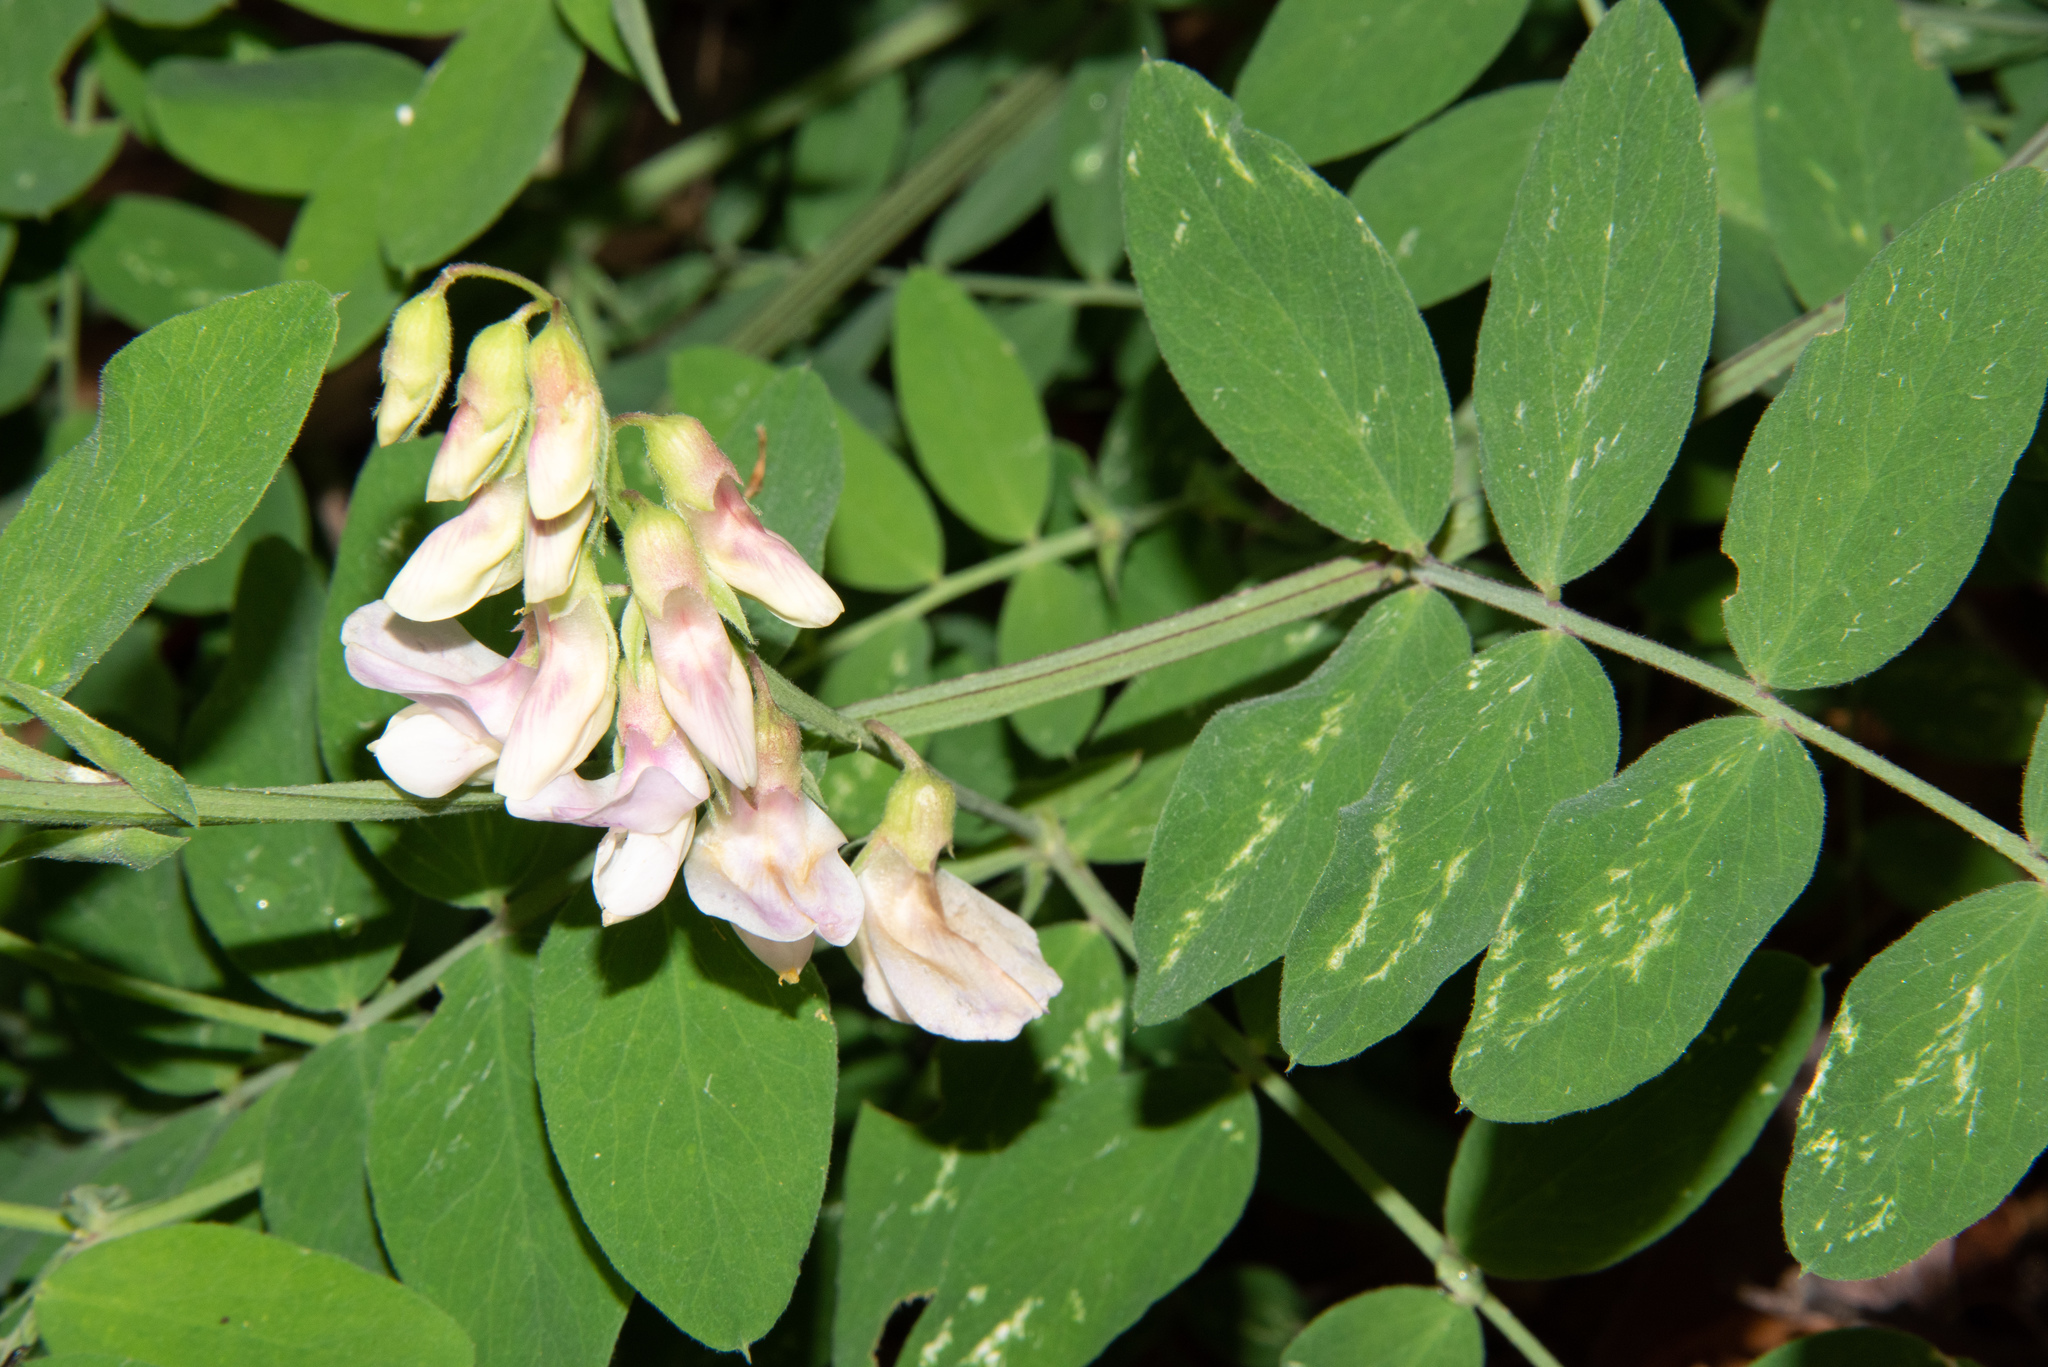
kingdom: Plantae
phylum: Tracheophyta
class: Magnoliopsida
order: Fabales
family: Fabaceae
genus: Lathyrus
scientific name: Lathyrus vestitus
